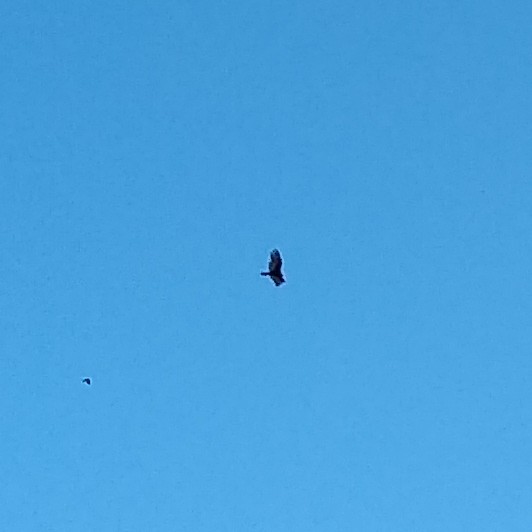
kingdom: Animalia
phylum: Chordata
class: Aves
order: Accipitriformes
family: Cathartidae
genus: Cathartes
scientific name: Cathartes aura
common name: Turkey vulture
